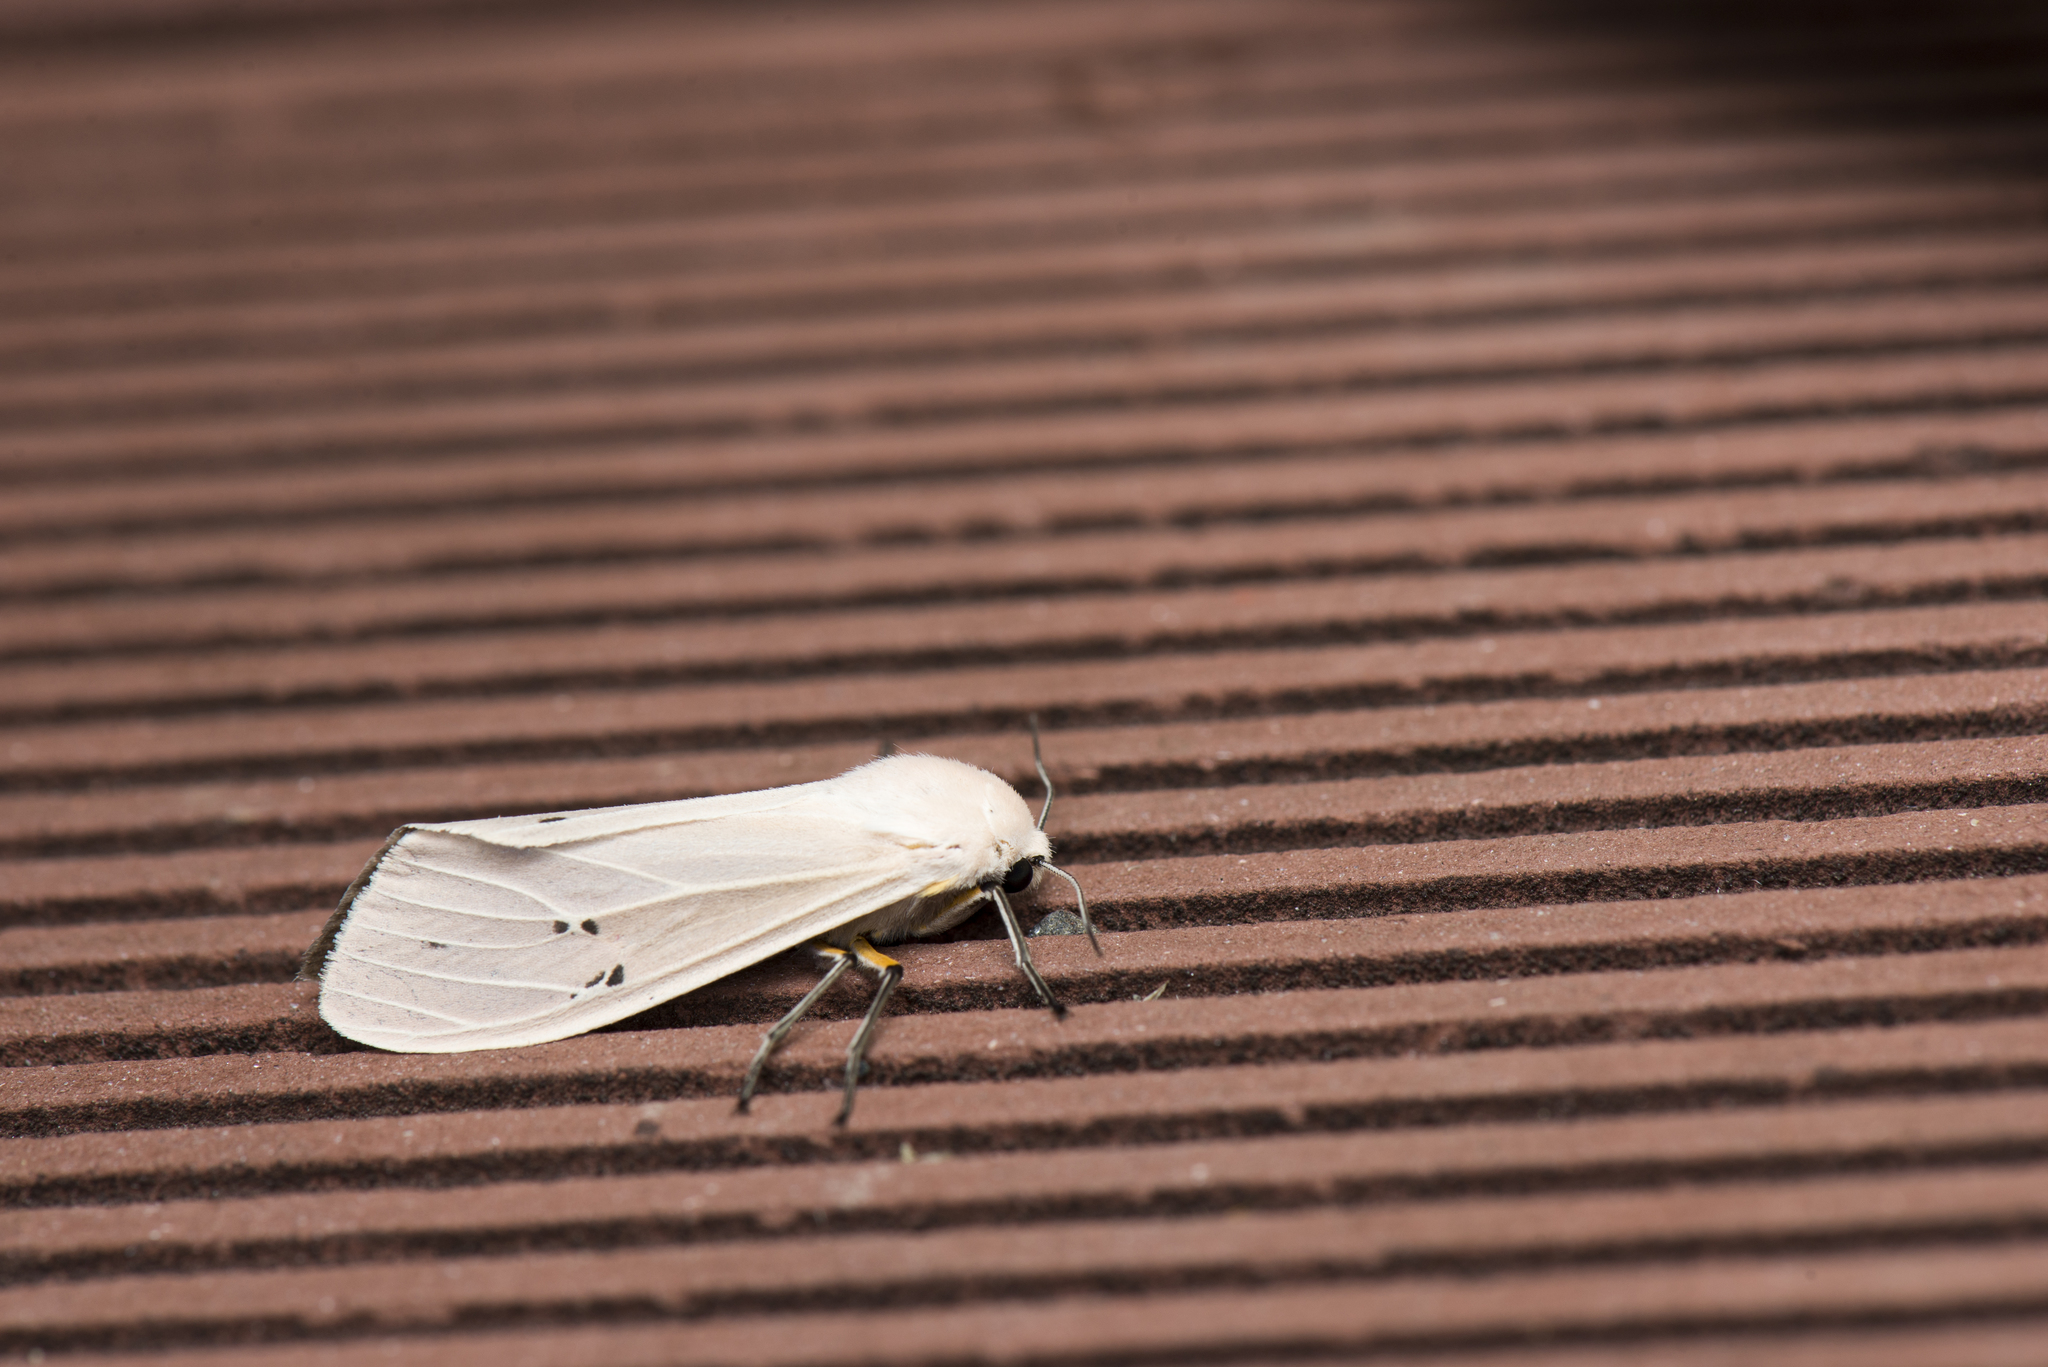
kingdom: Animalia
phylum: Arthropoda
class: Insecta
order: Lepidoptera
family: Erebidae
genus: Creatonotos
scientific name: Creatonotos transiens
